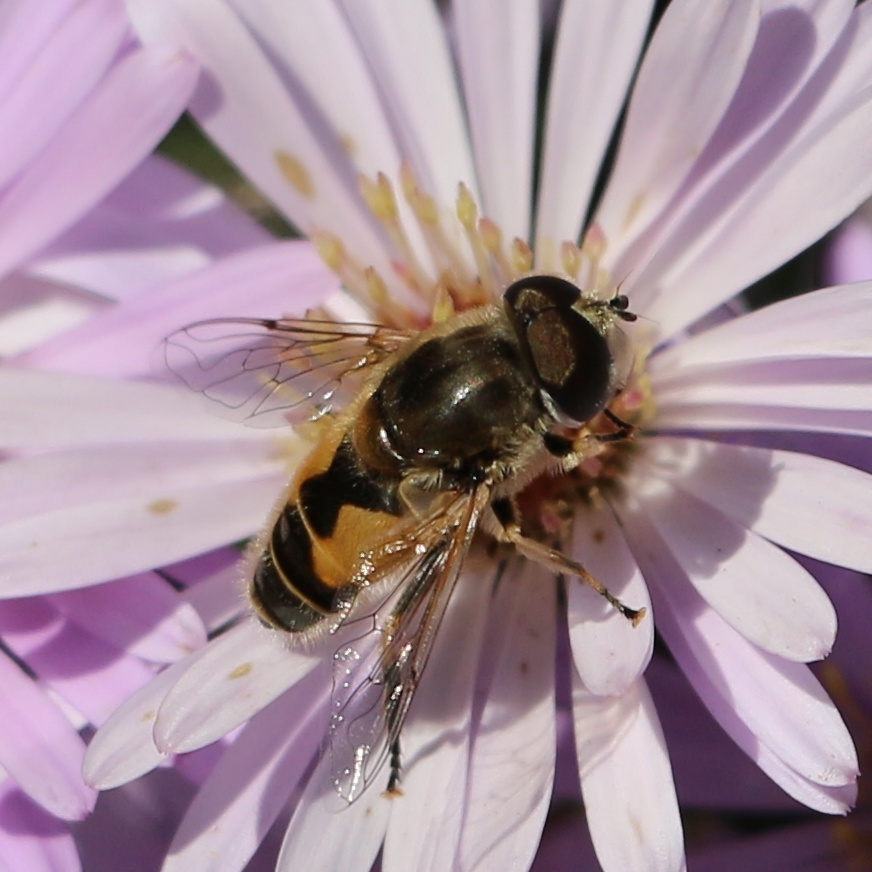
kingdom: Animalia
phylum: Arthropoda
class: Insecta
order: Diptera
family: Syrphidae
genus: Eristalis
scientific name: Eristalis arbustorum
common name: Hover fly
